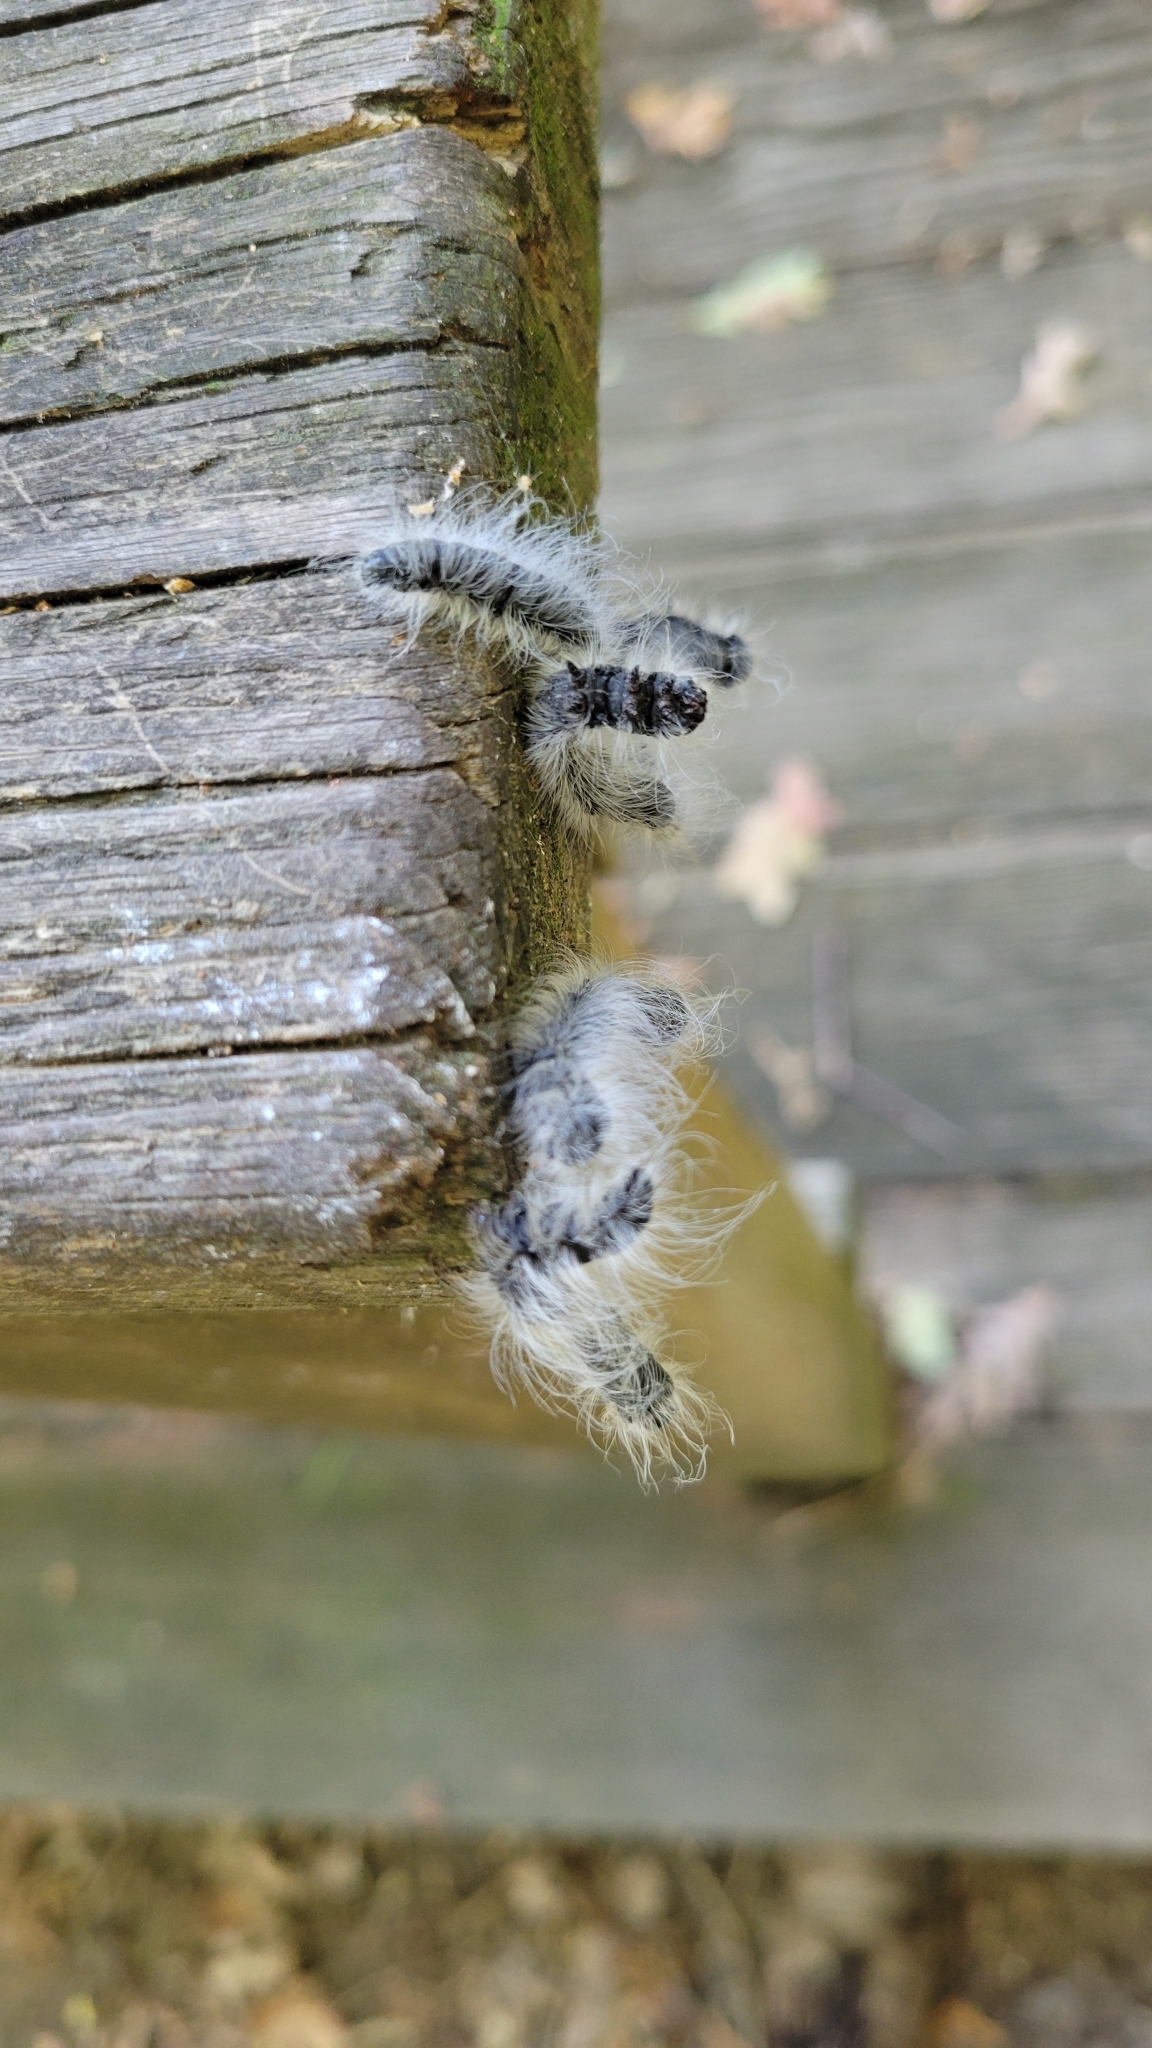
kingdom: Animalia
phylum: Arthropoda
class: Insecta
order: Lepidoptera
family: Notodontidae
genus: Datana
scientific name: Datana integerrima
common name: Walnut caterpillar
